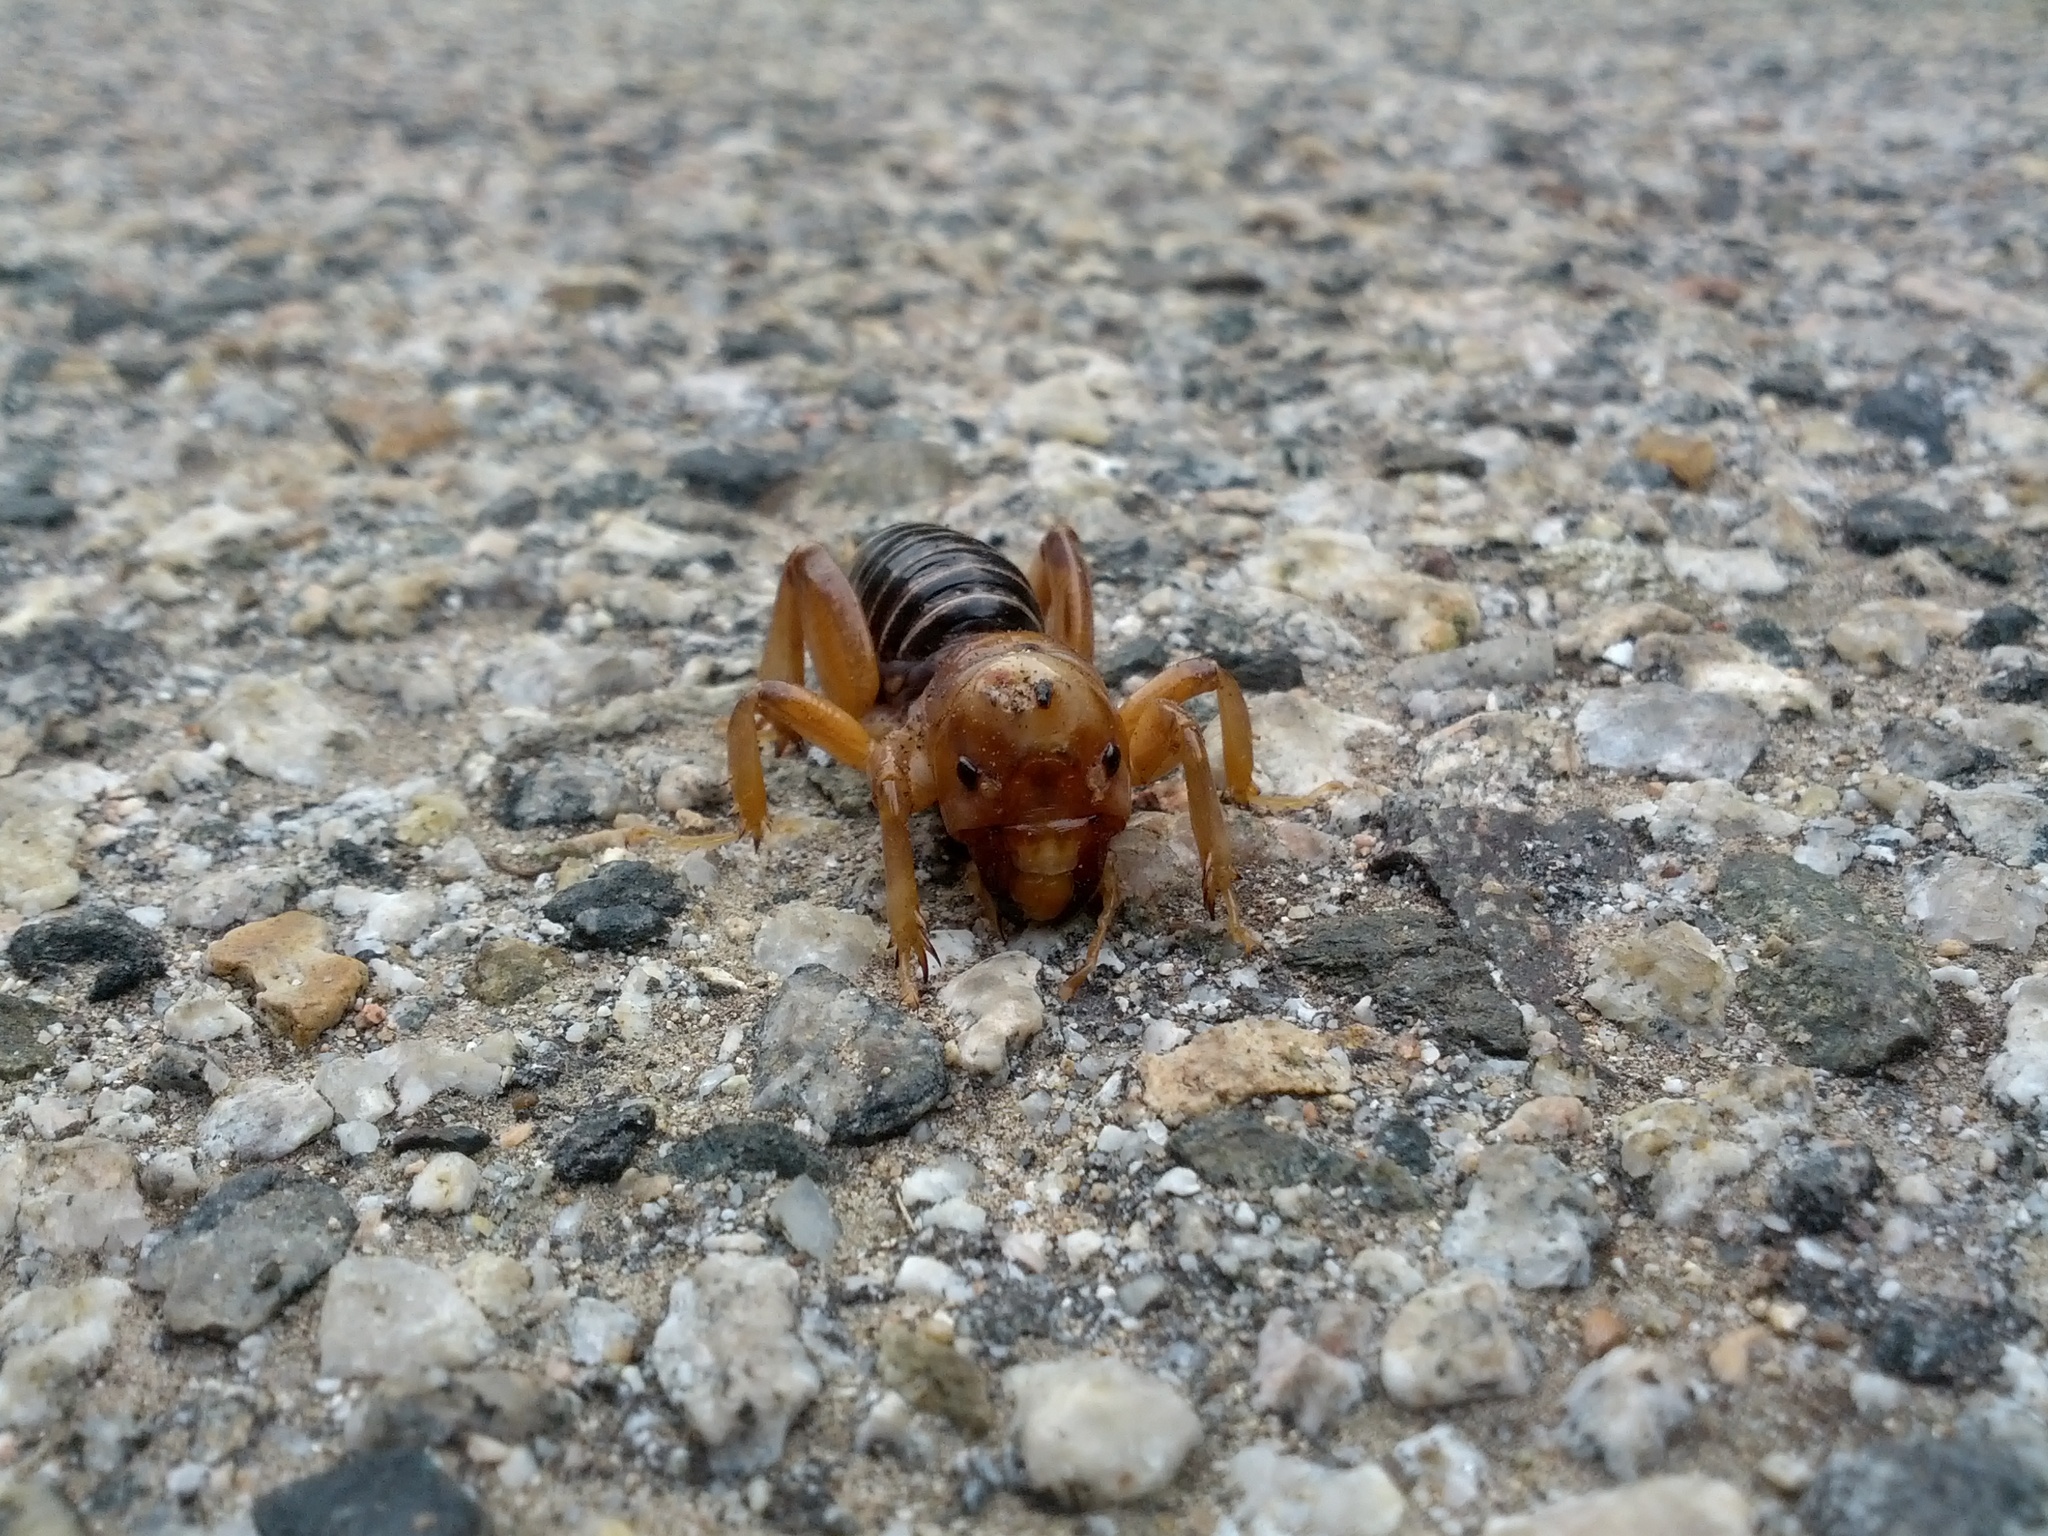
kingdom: Animalia
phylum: Arthropoda
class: Insecta
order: Orthoptera
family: Stenopelmatidae
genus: Ammopelmatus
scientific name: Ammopelmatus
